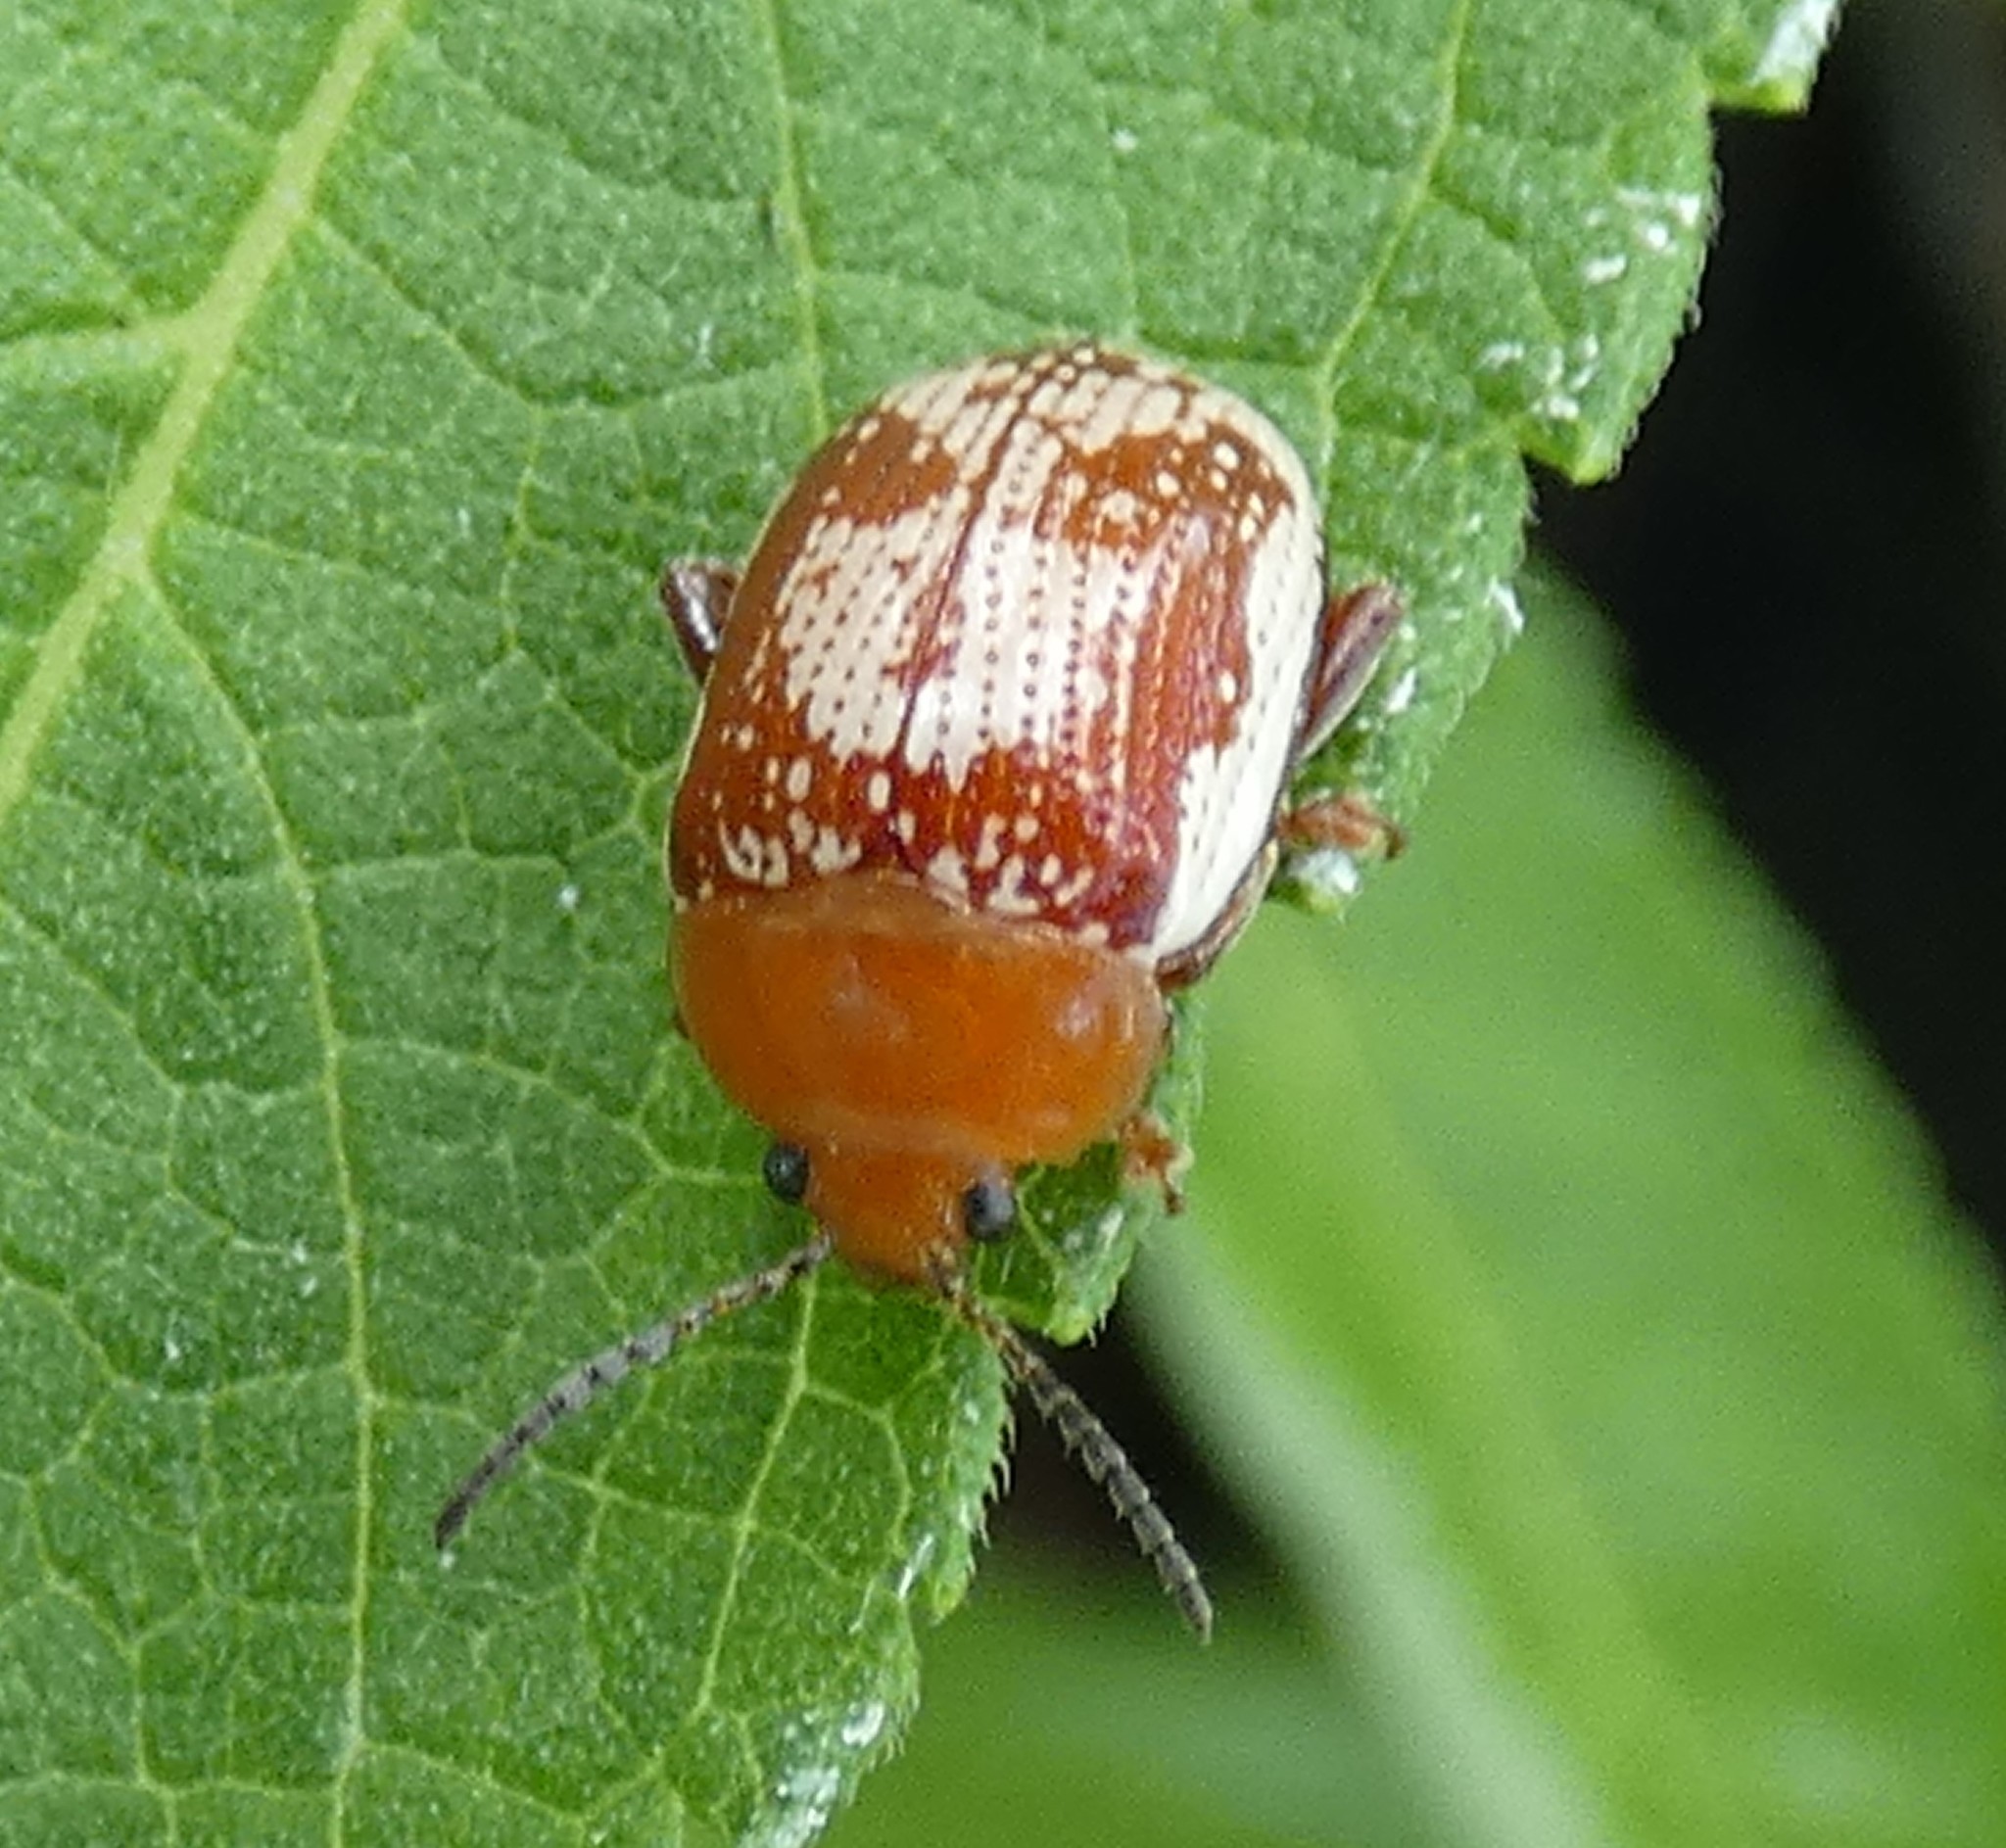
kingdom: Animalia
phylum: Arthropoda
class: Insecta
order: Coleoptera
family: Chrysomelidae
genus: Blepharida
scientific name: Blepharida rhois
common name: Sumac flea beetle
